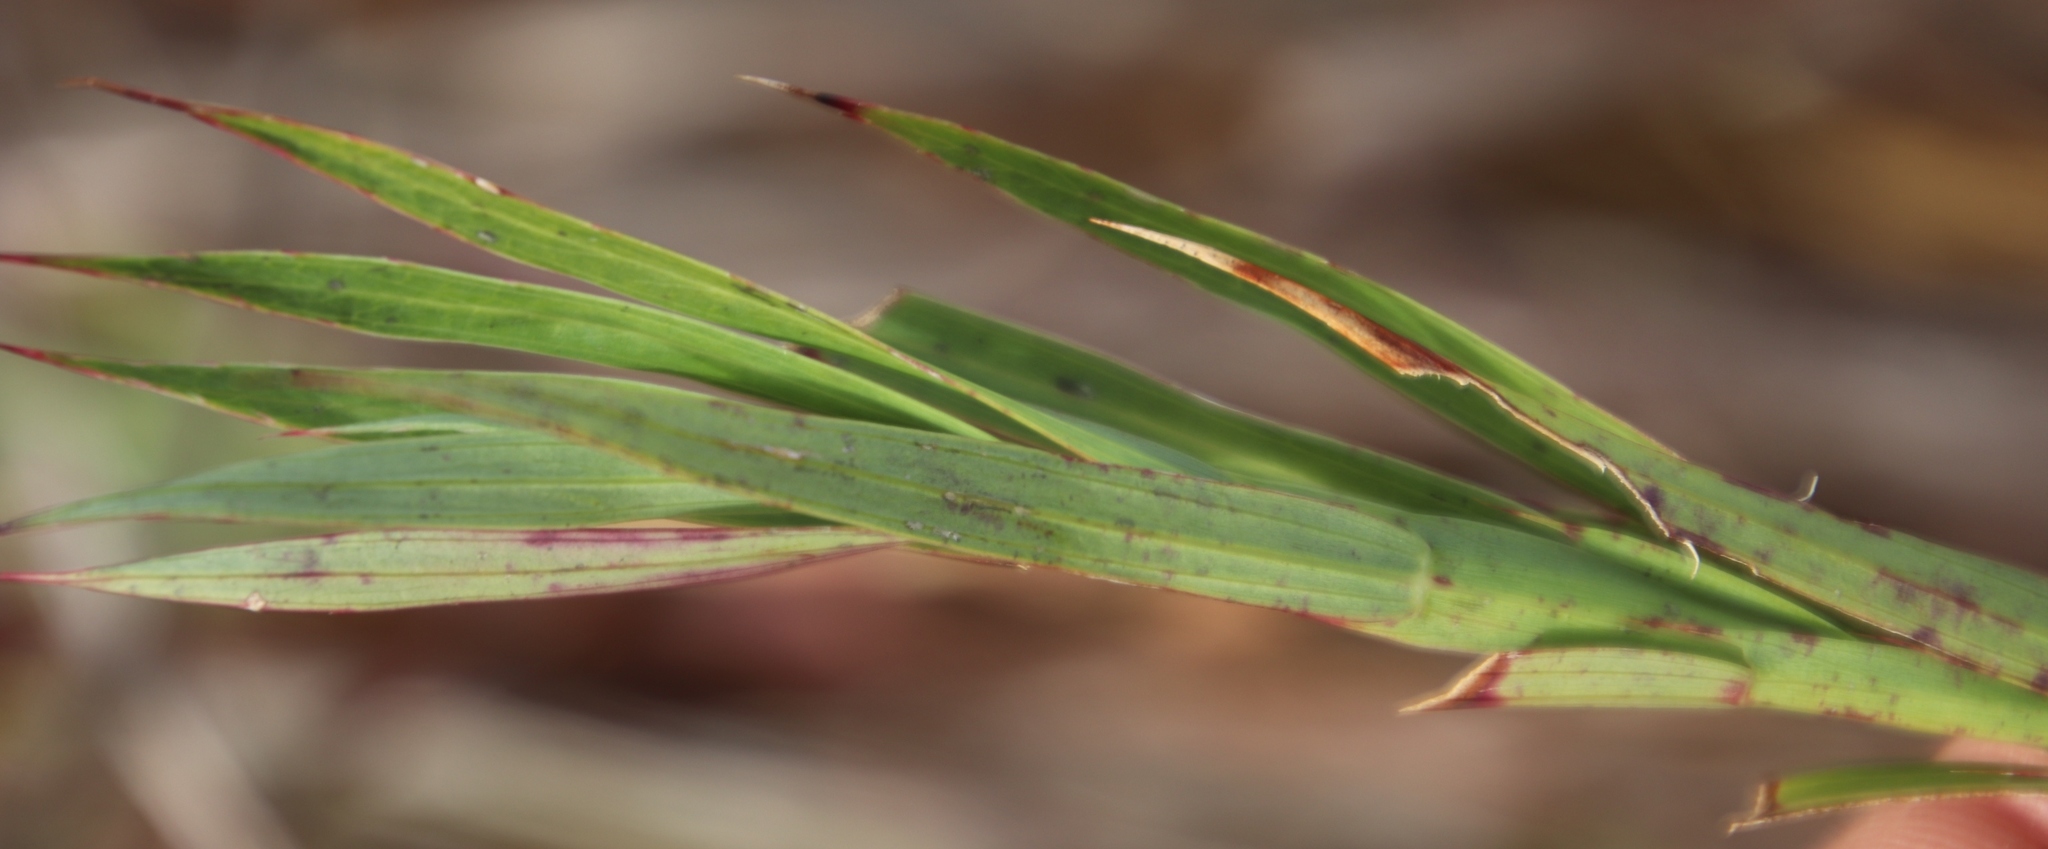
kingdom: Plantae
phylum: Tracheophyta
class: Magnoliopsida
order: Rosales
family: Rosaceae
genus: Cliffortia
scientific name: Cliffortia graminea
